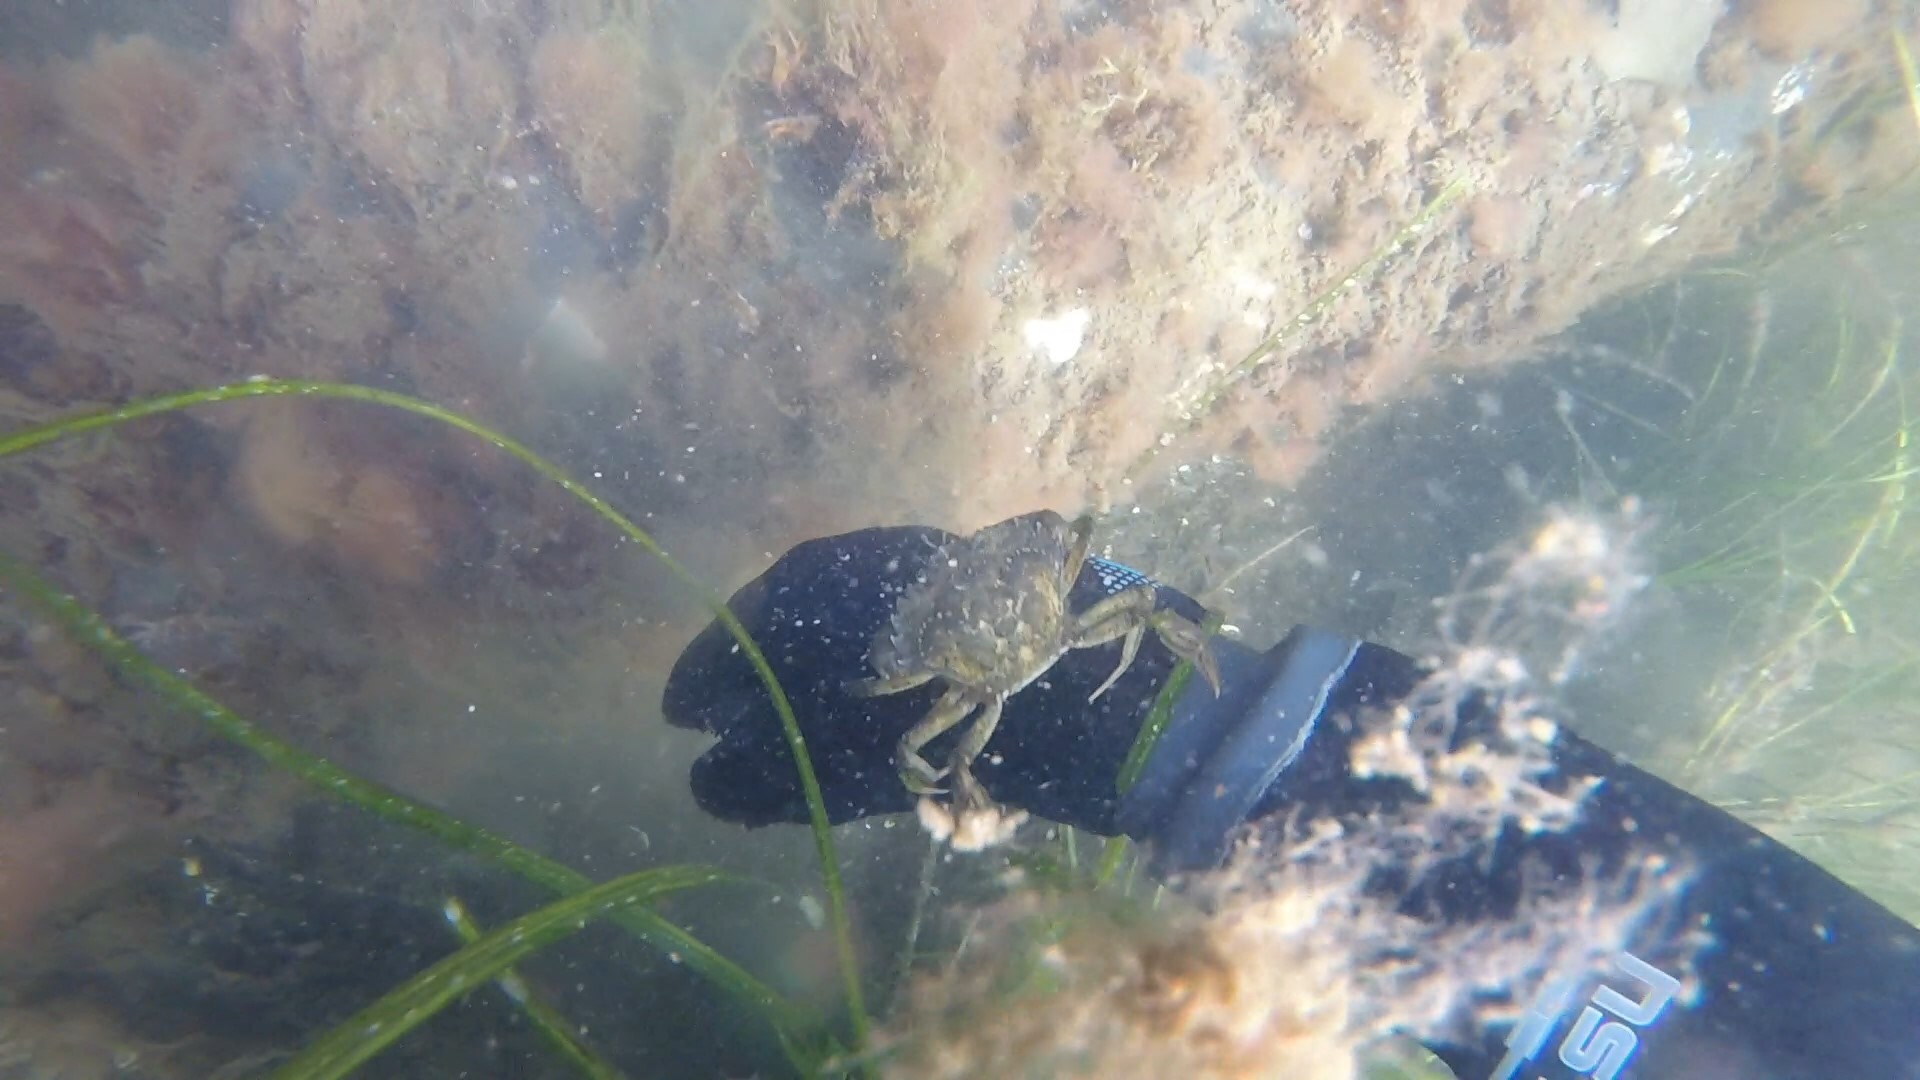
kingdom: Animalia
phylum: Arthropoda
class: Malacostraca
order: Decapoda
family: Carcinidae
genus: Carcinus
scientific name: Carcinus maenas
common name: European green crab
